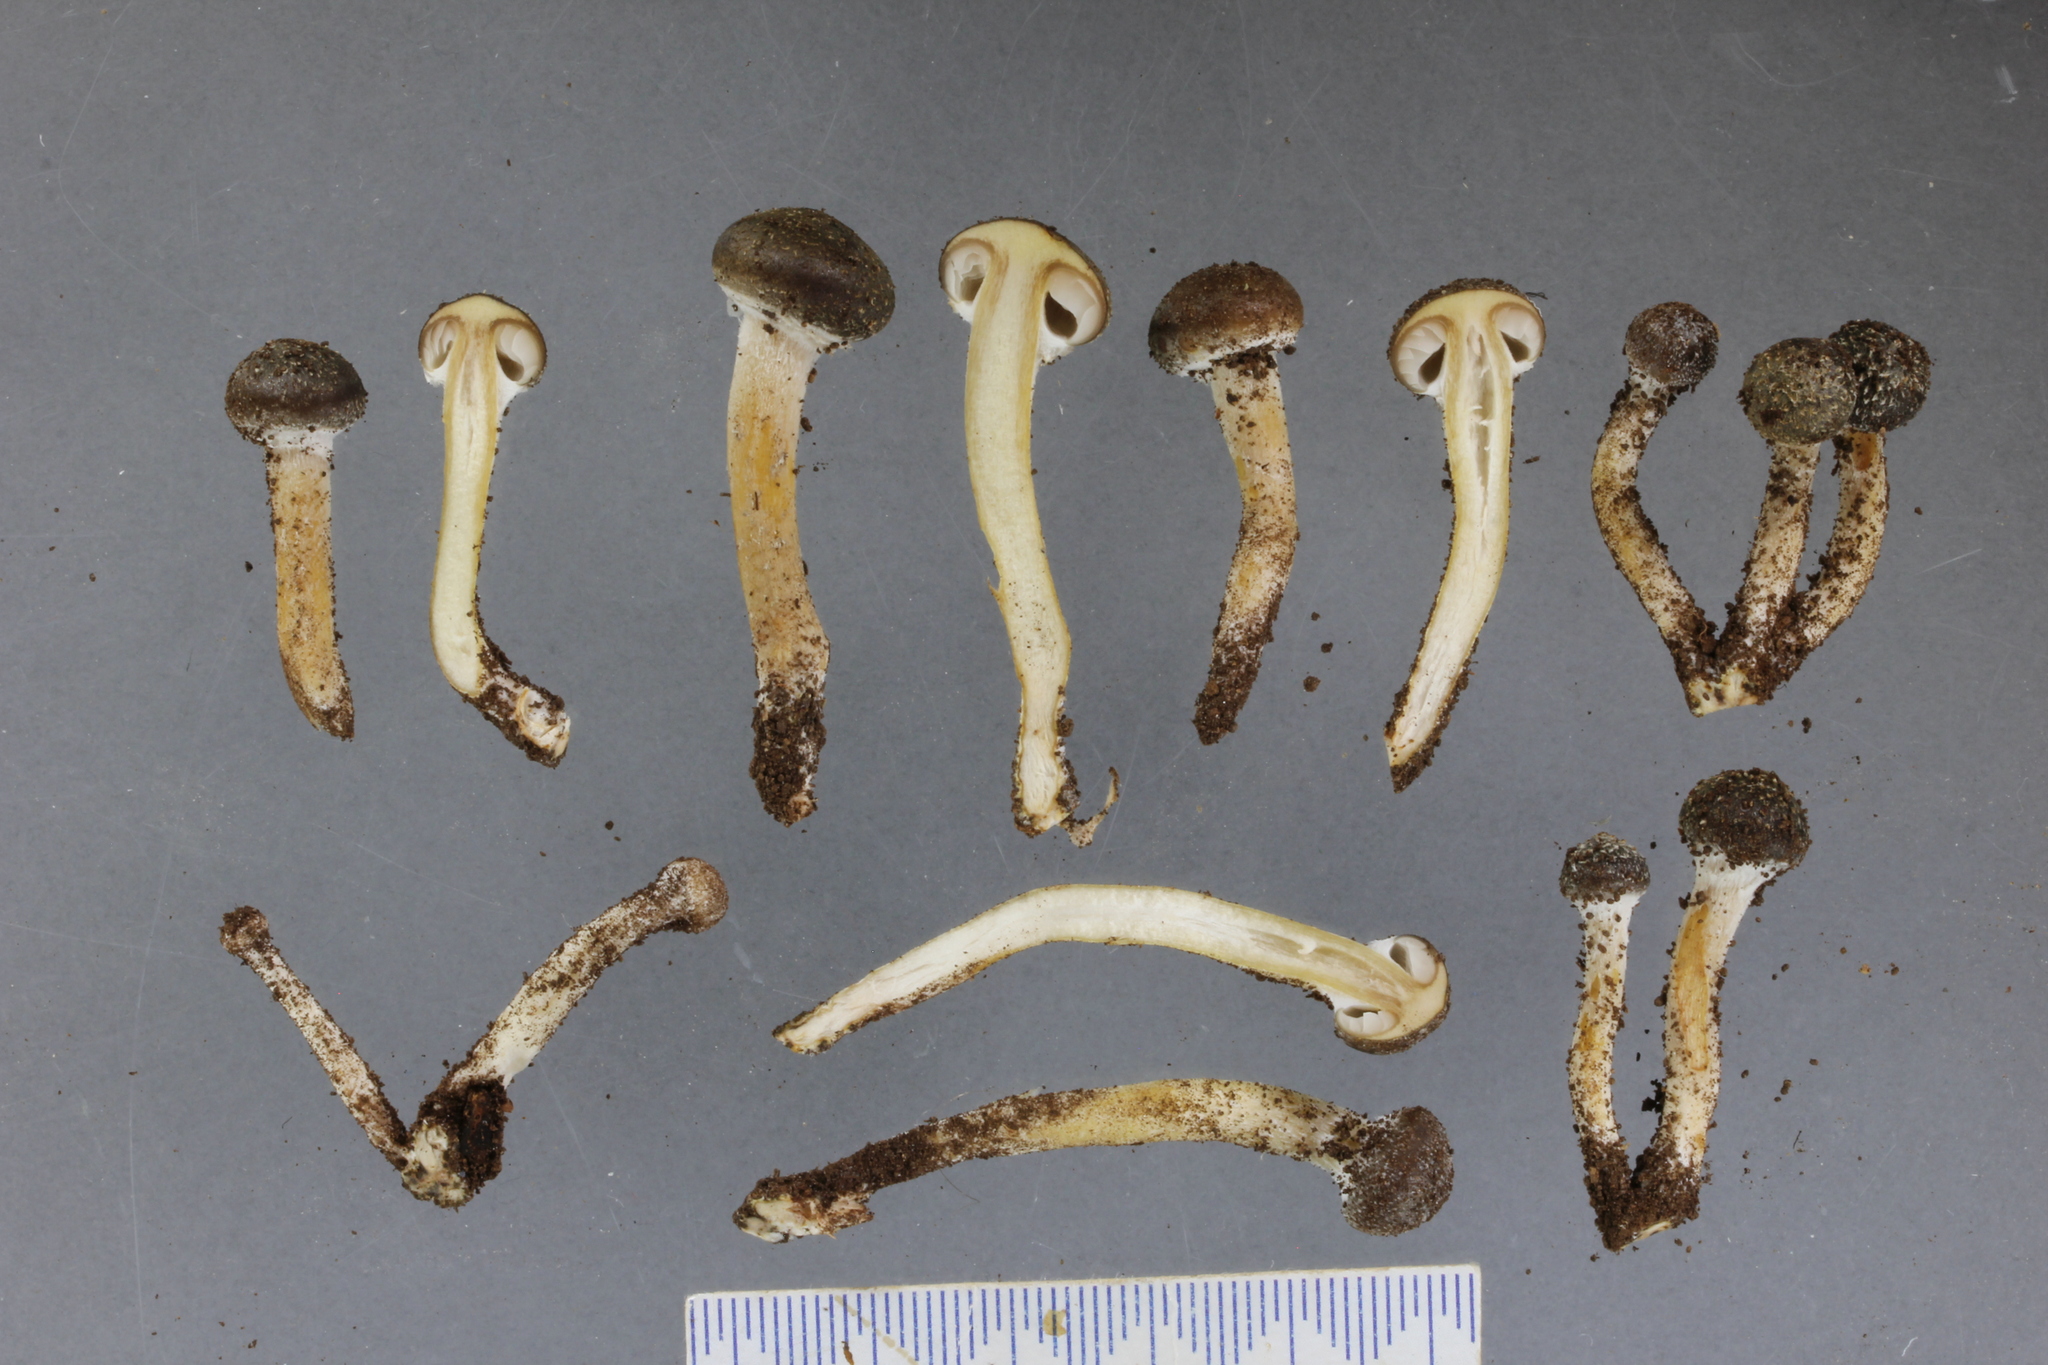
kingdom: Fungi
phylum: Basidiomycota
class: Agaricomycetes
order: Agaricales
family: Physalacriaceae
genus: Armillaria
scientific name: Armillaria novae-zelandiae
